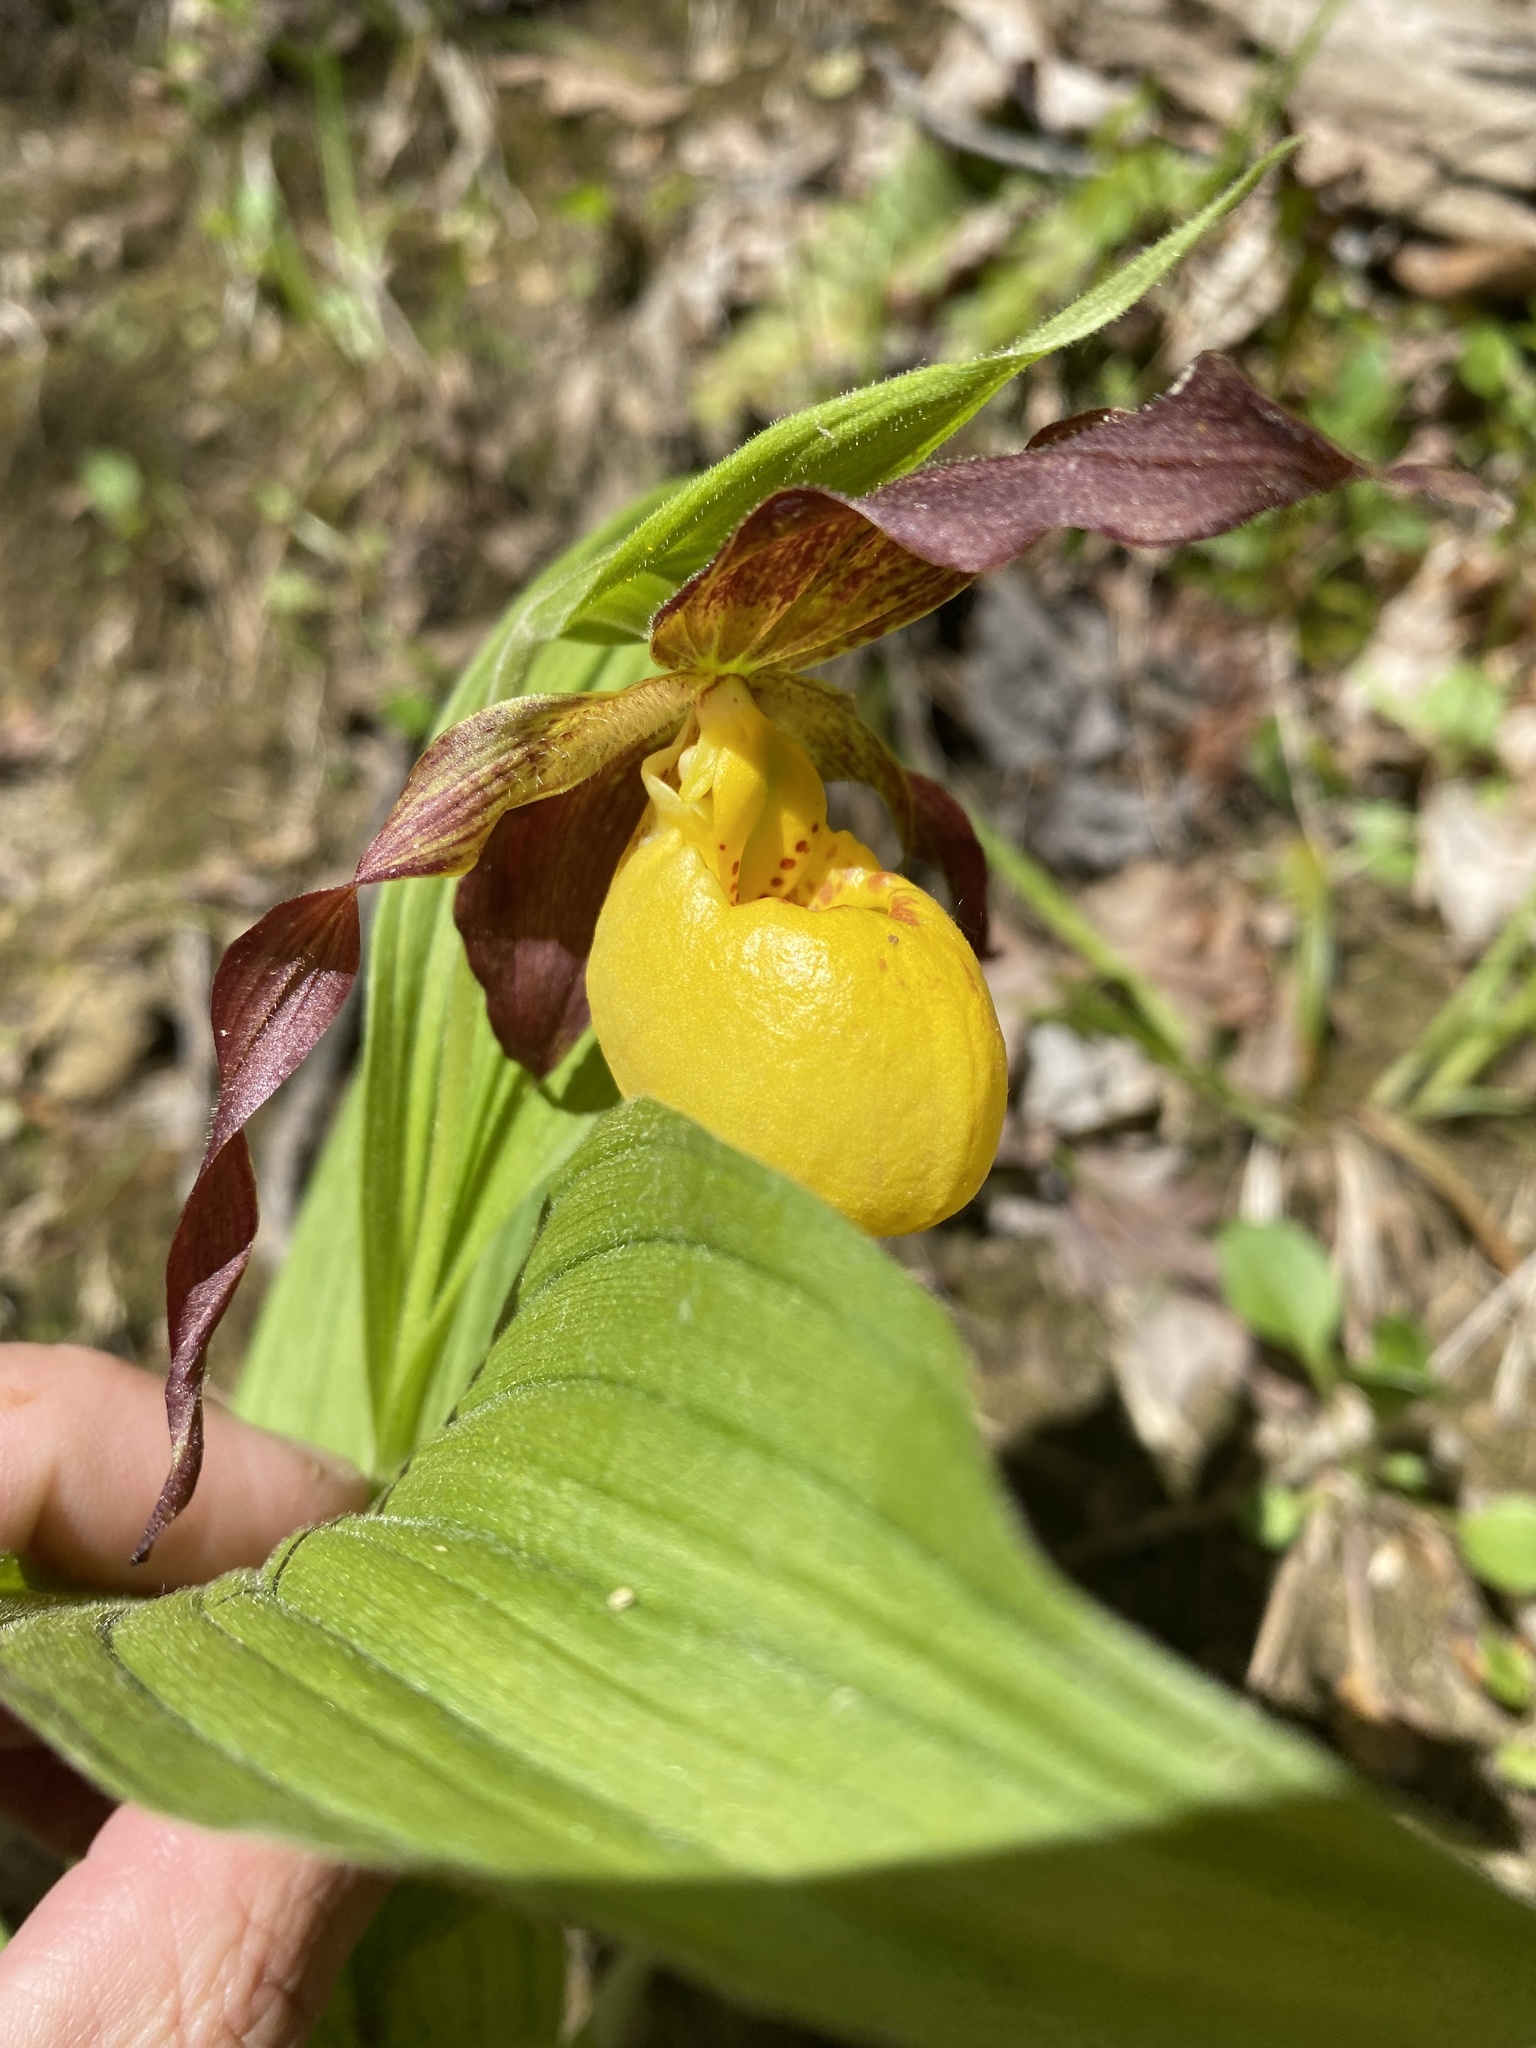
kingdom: Plantae
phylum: Tracheophyta
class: Liliopsida
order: Asparagales
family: Orchidaceae
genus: Cypripedium
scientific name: Cypripedium parviflorum
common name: American yellow lady's-slipper
